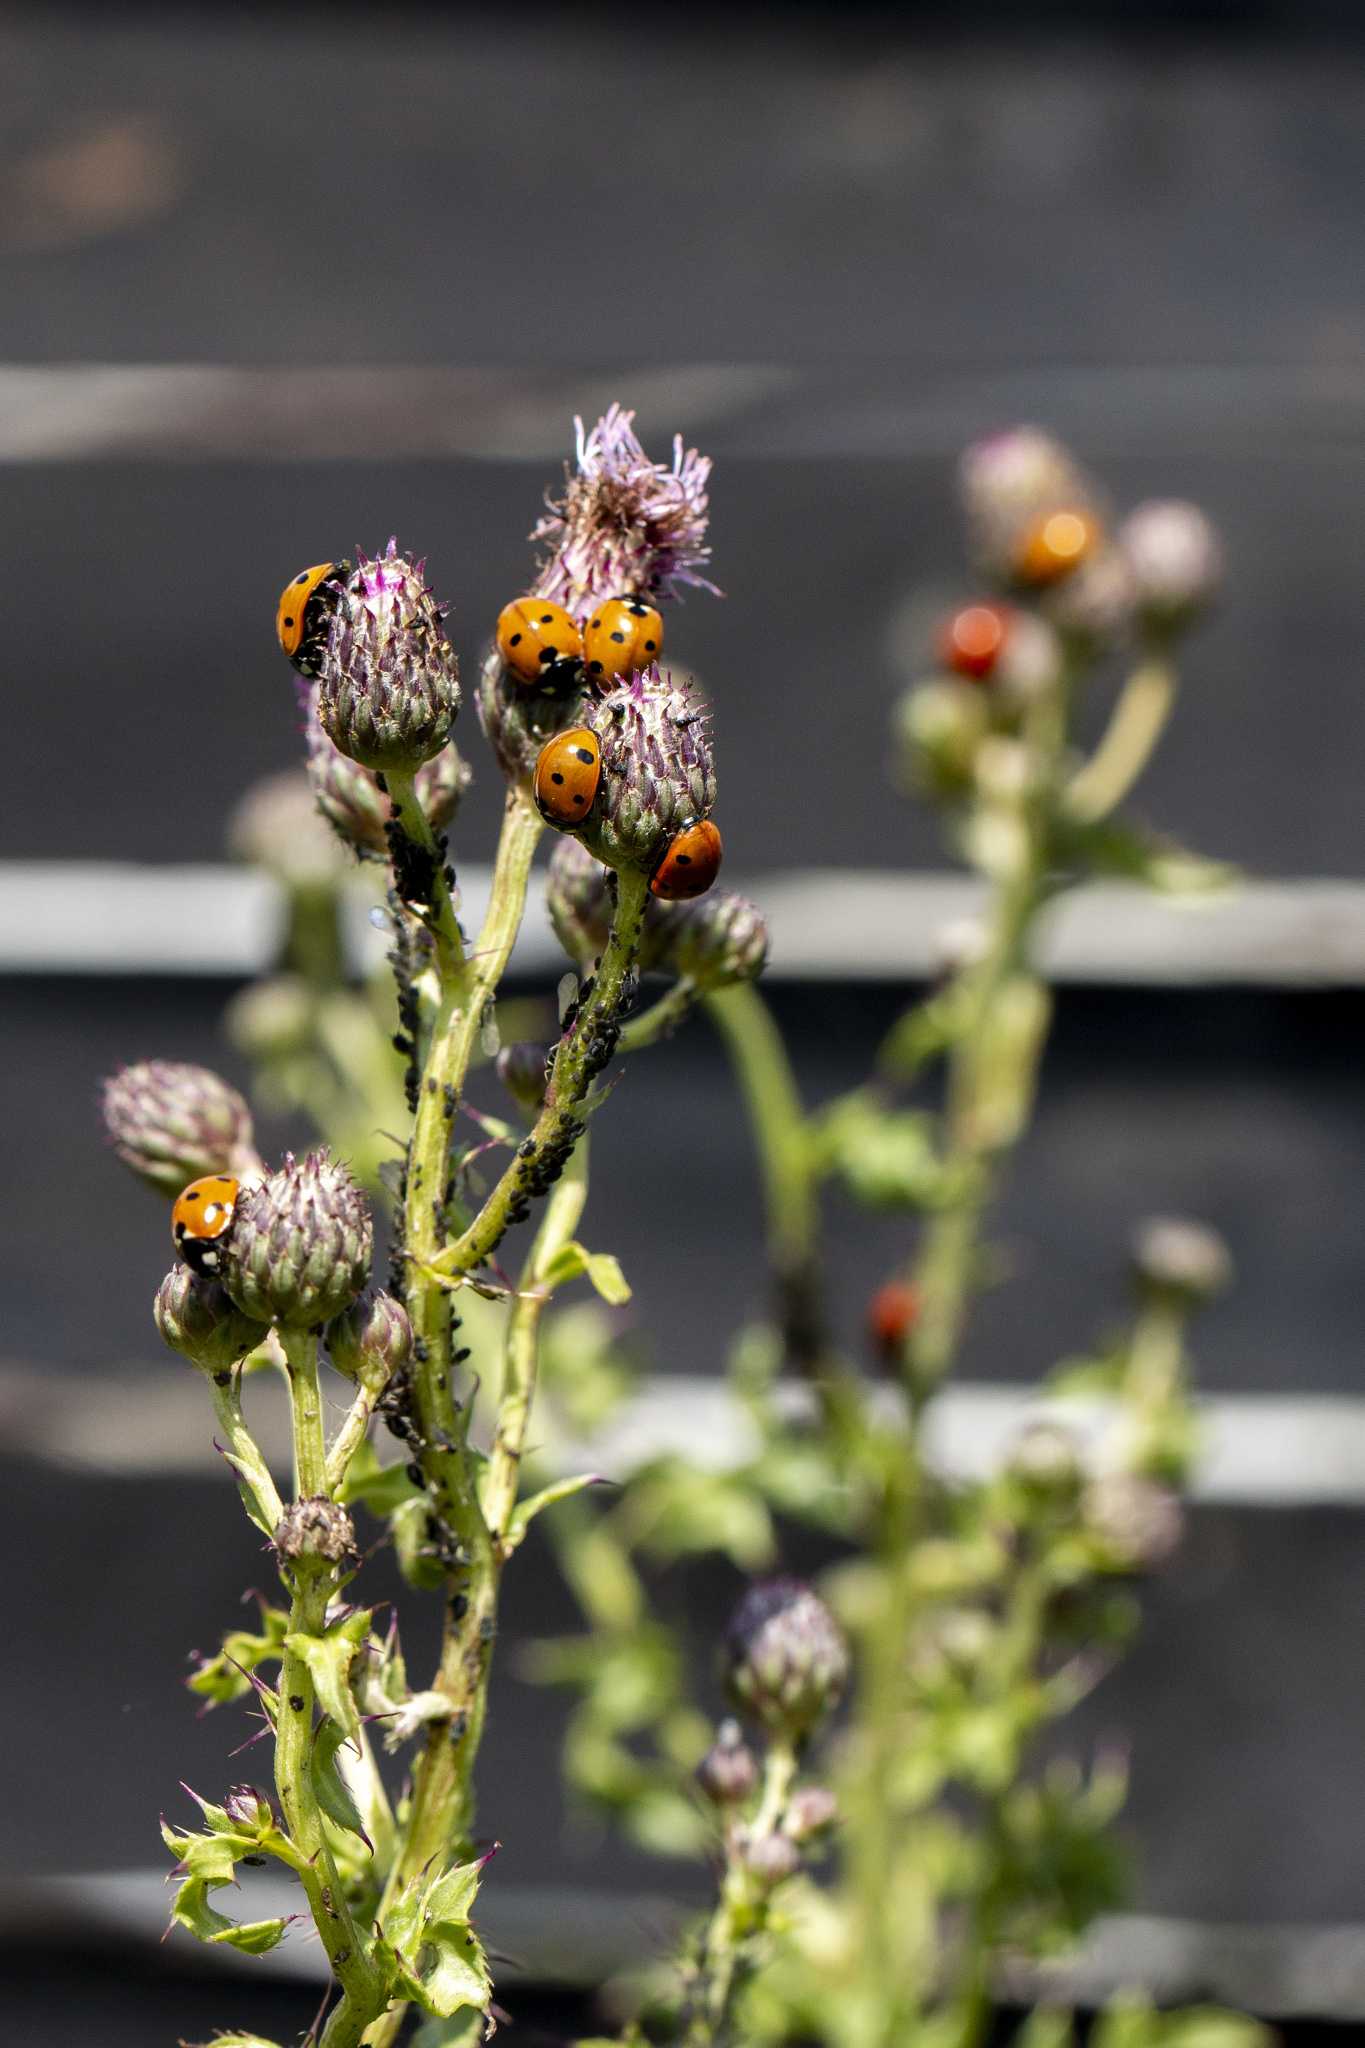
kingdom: Animalia
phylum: Arthropoda
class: Insecta
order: Coleoptera
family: Coccinellidae
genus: Coccinella
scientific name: Coccinella septempunctata
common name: Sevenspotted lady beetle
